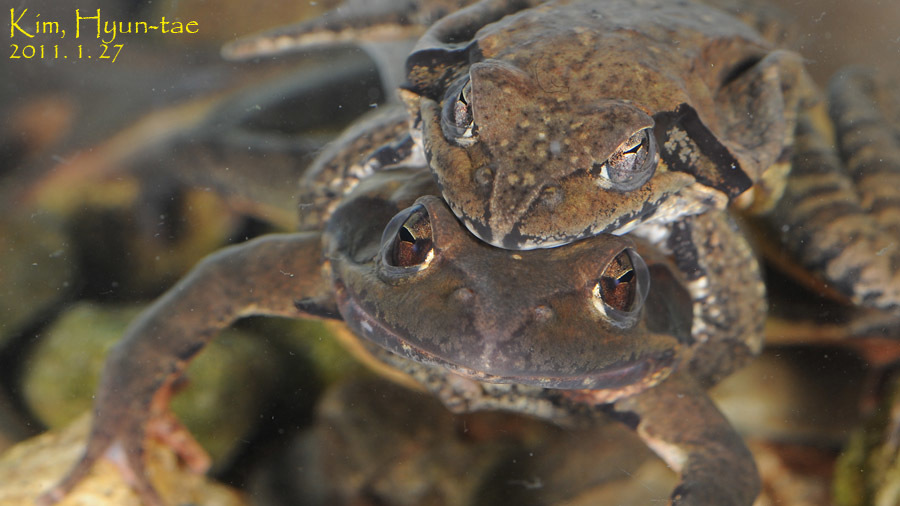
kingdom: Animalia
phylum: Chordata
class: Amphibia
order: Anura
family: Ranidae
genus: Rana
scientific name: Rana uenoi
